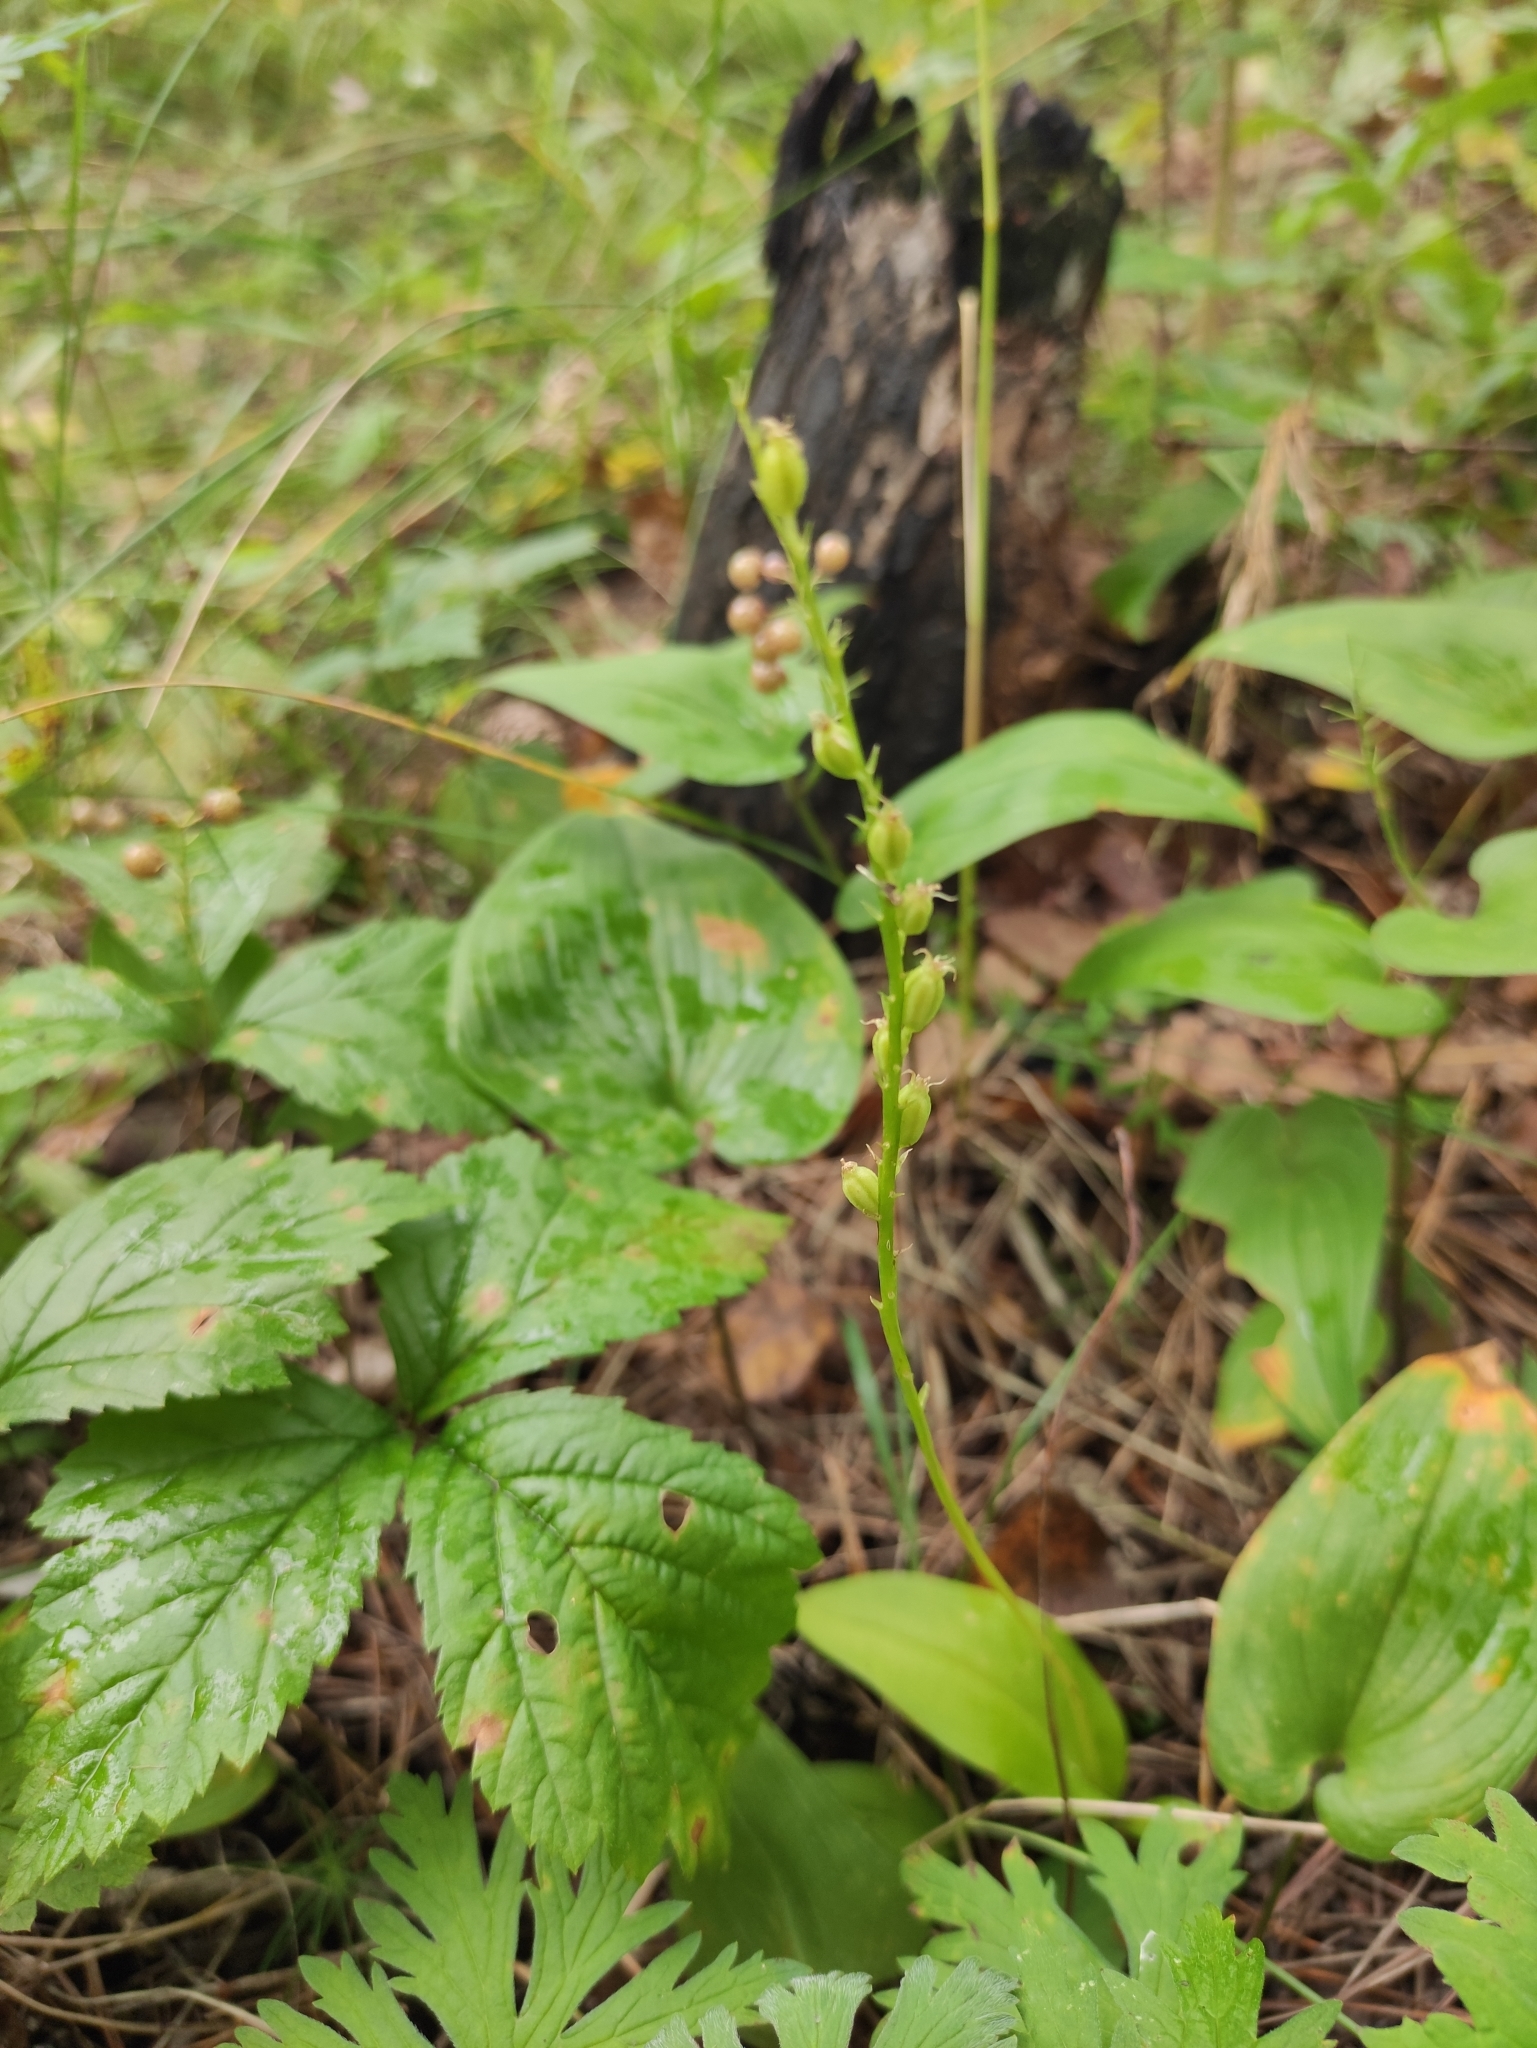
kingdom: Plantae
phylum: Tracheophyta
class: Liliopsida
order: Asparagales
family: Orchidaceae
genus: Malaxis
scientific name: Malaxis monophyllos
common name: White adder's-mouth
